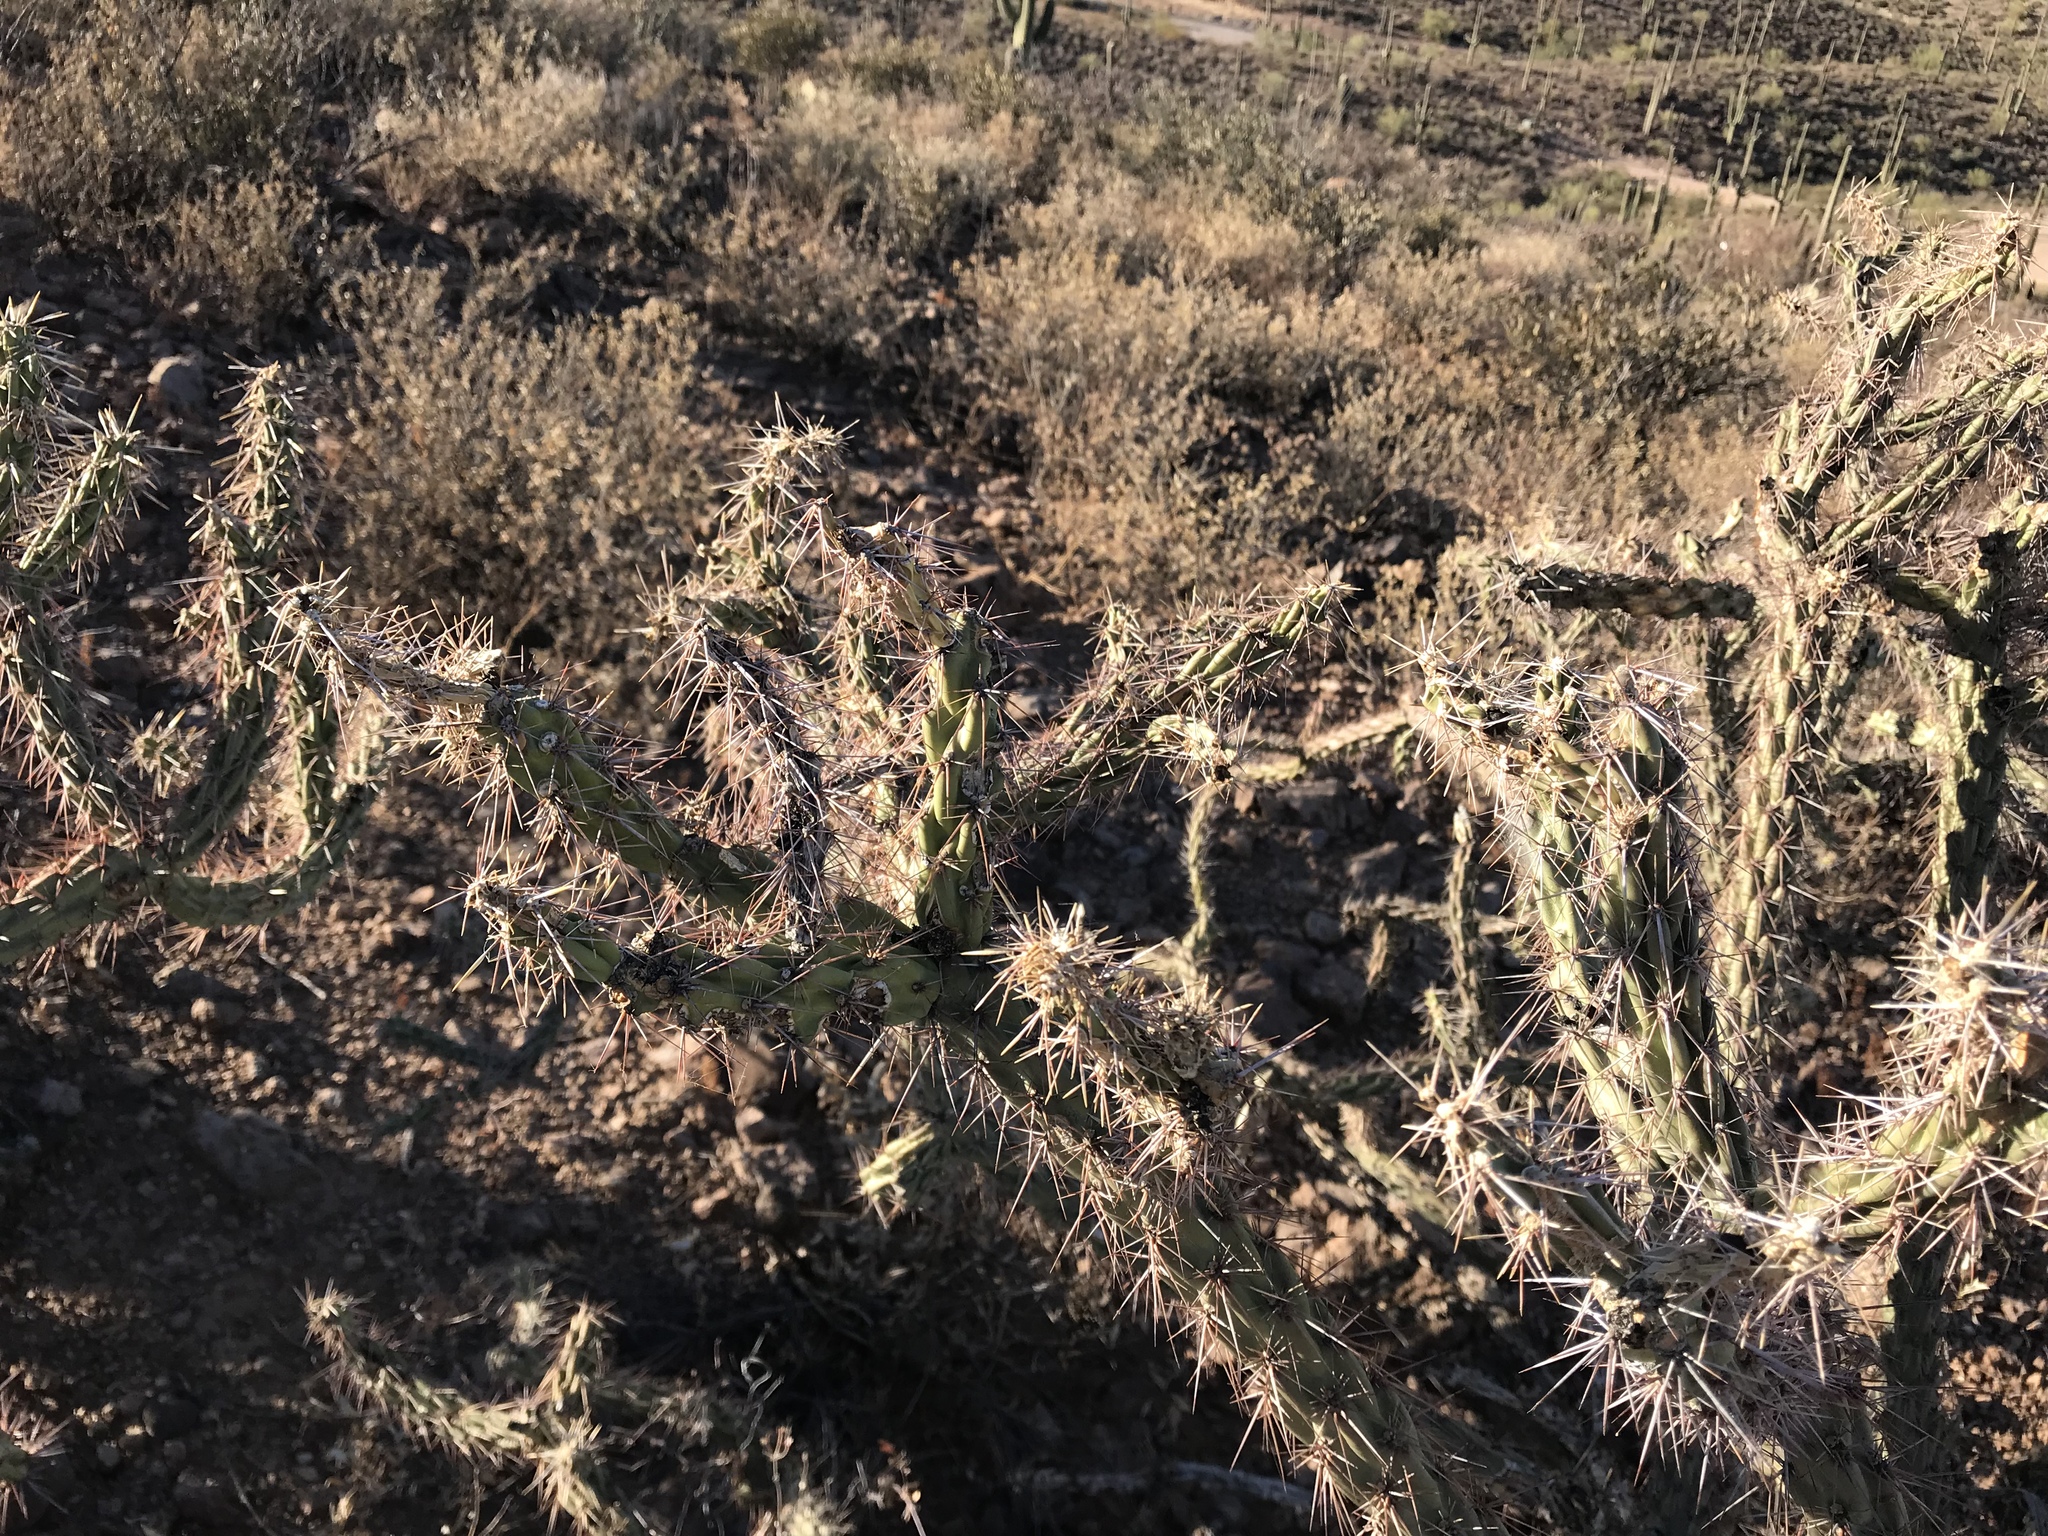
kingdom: Plantae
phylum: Tracheophyta
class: Magnoliopsida
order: Caryophyllales
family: Cactaceae
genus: Cylindropuntia
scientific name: Cylindropuntia acanthocarpa
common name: Buckhorn cholla
